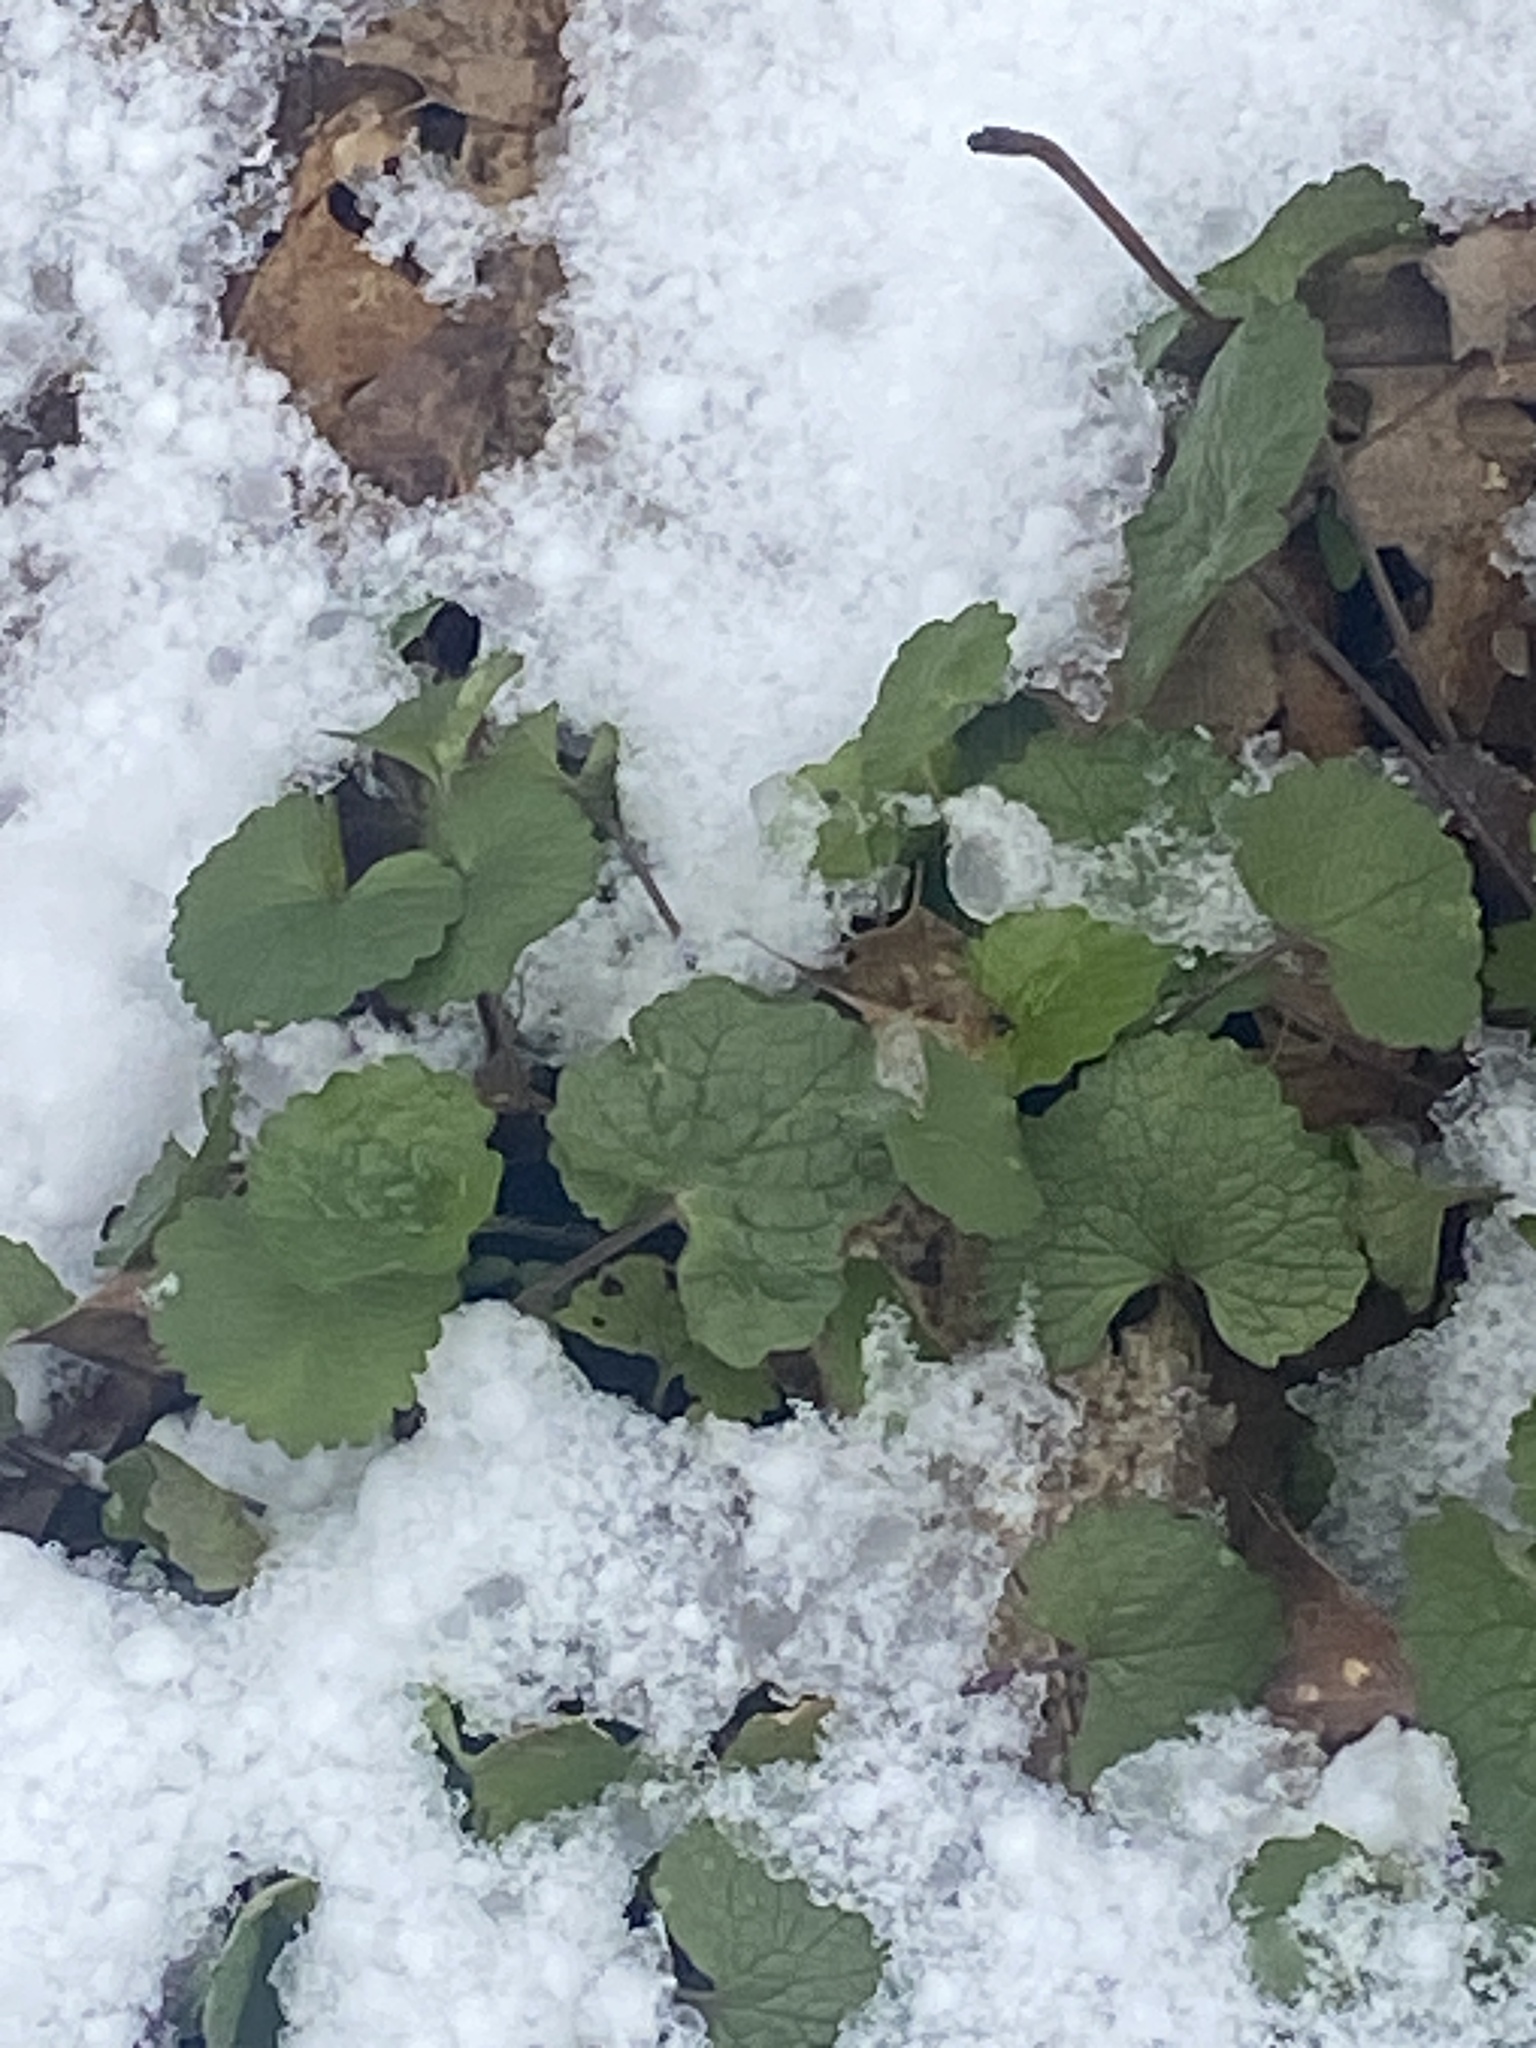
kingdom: Plantae
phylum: Tracheophyta
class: Magnoliopsida
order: Brassicales
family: Brassicaceae
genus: Alliaria
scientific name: Alliaria petiolata
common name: Garlic mustard
